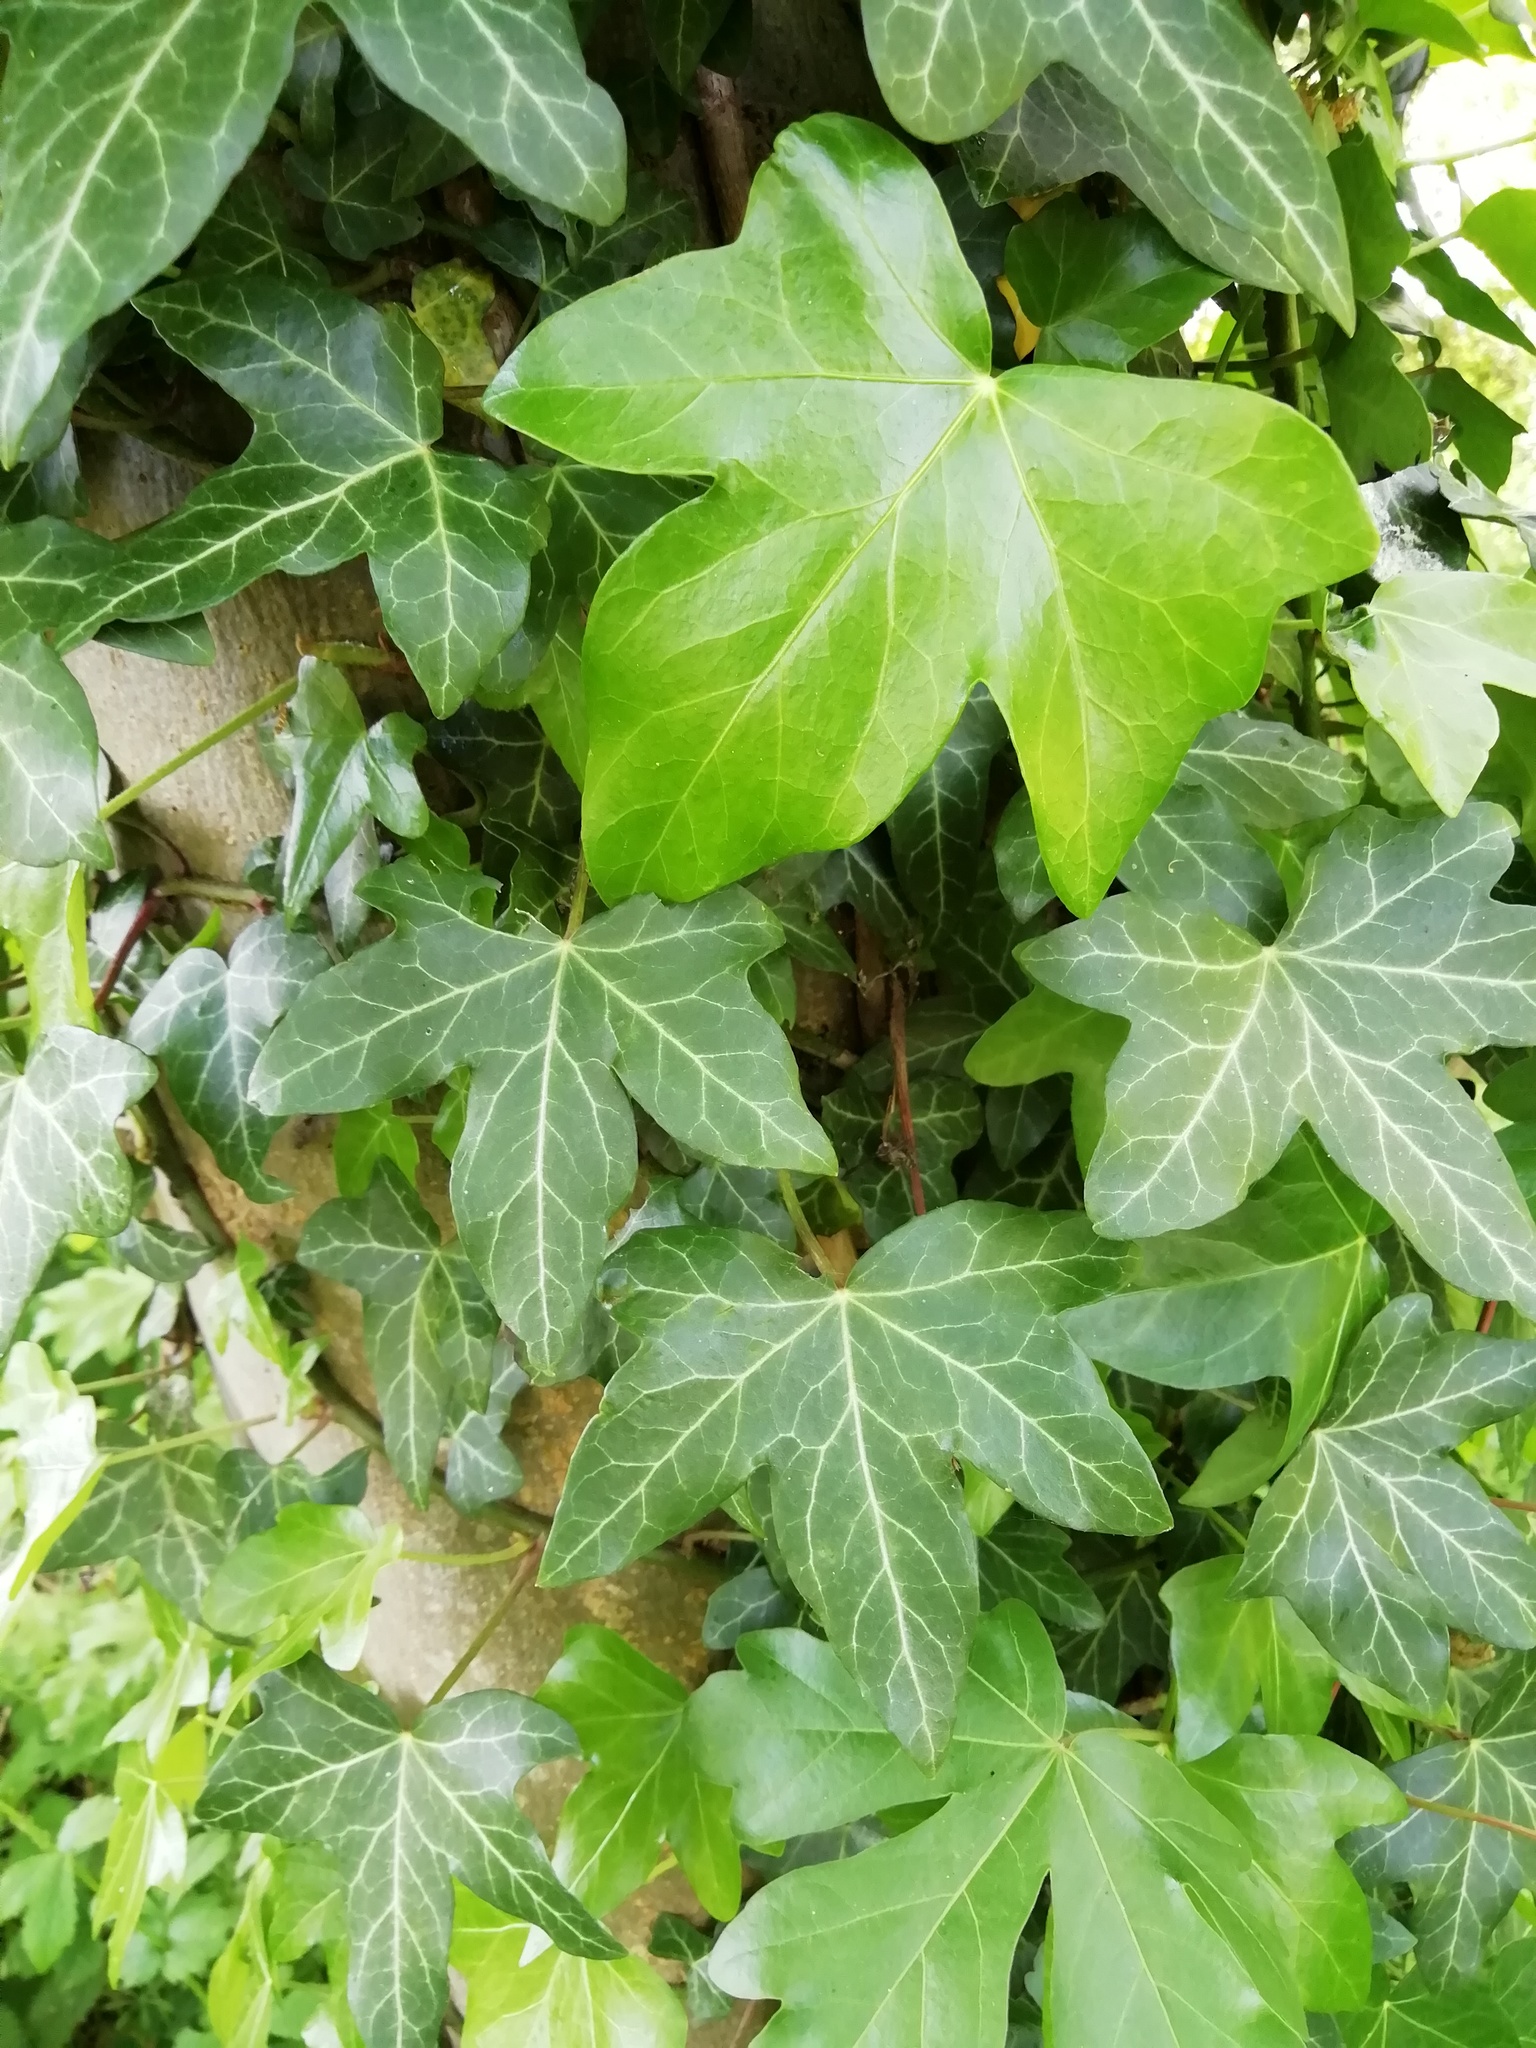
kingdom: Plantae
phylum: Tracheophyta
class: Magnoliopsida
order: Apiales
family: Araliaceae
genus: Hedera
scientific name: Hedera helix
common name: Ivy
